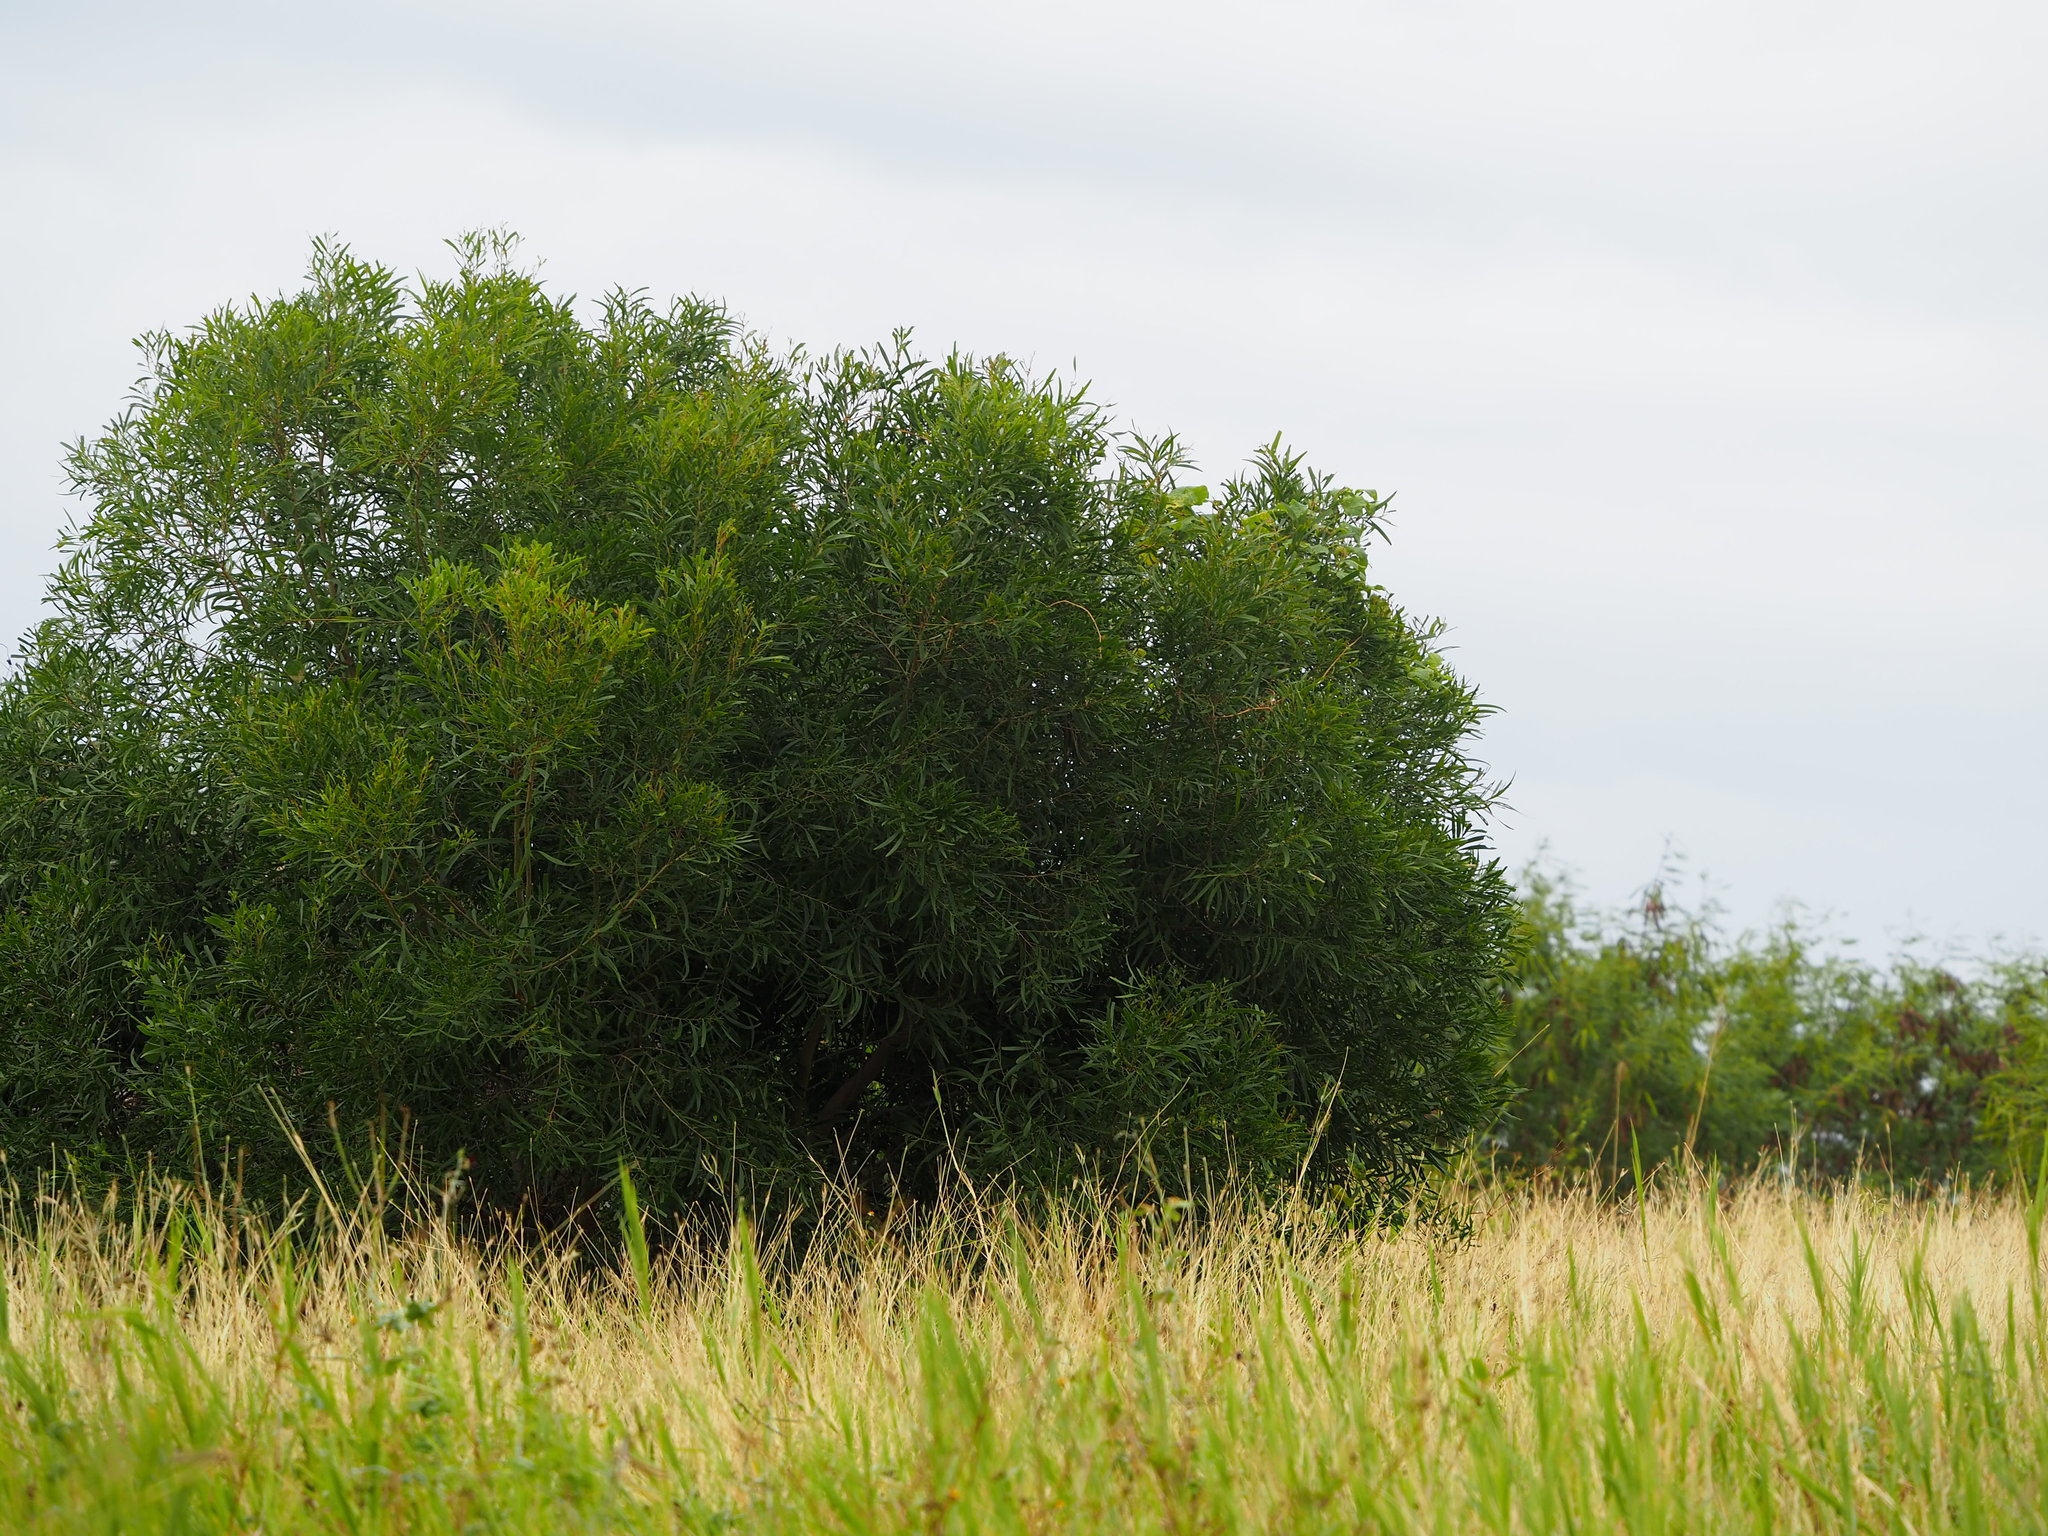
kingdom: Plantae
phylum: Tracheophyta
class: Magnoliopsida
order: Fabales
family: Fabaceae
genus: Acacia
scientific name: Acacia confusa
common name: Formosan koa
